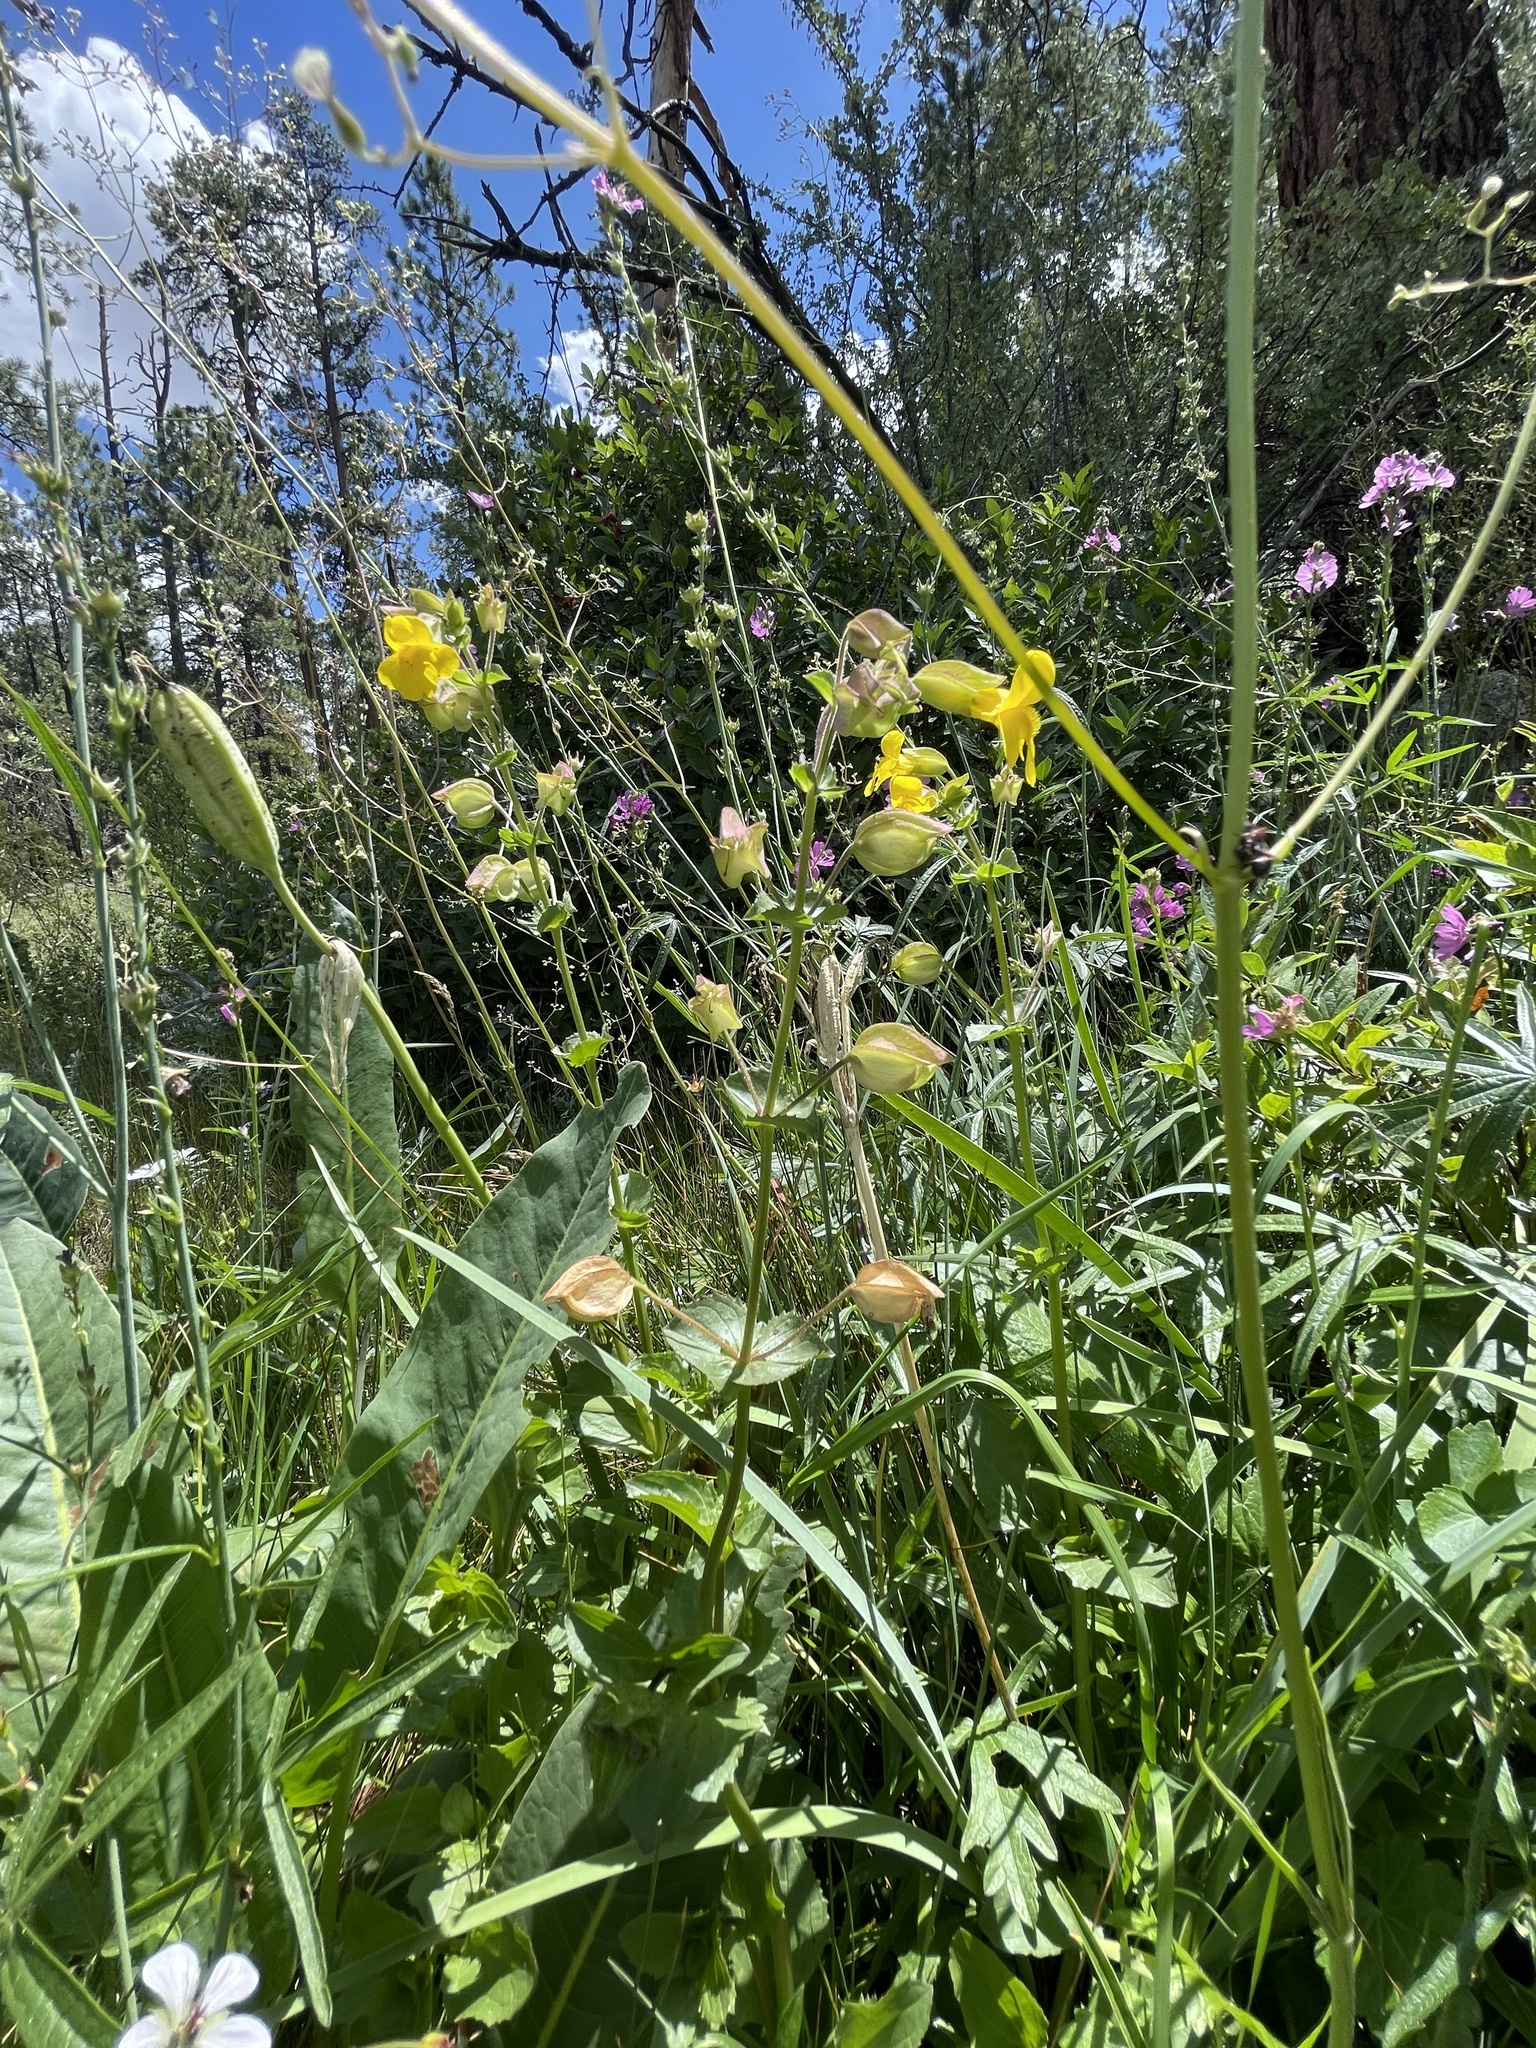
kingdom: Plantae
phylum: Tracheophyta
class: Magnoliopsida
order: Lamiales
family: Phrymaceae
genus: Erythranthe
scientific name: Erythranthe guttata
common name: Monkeyflower
